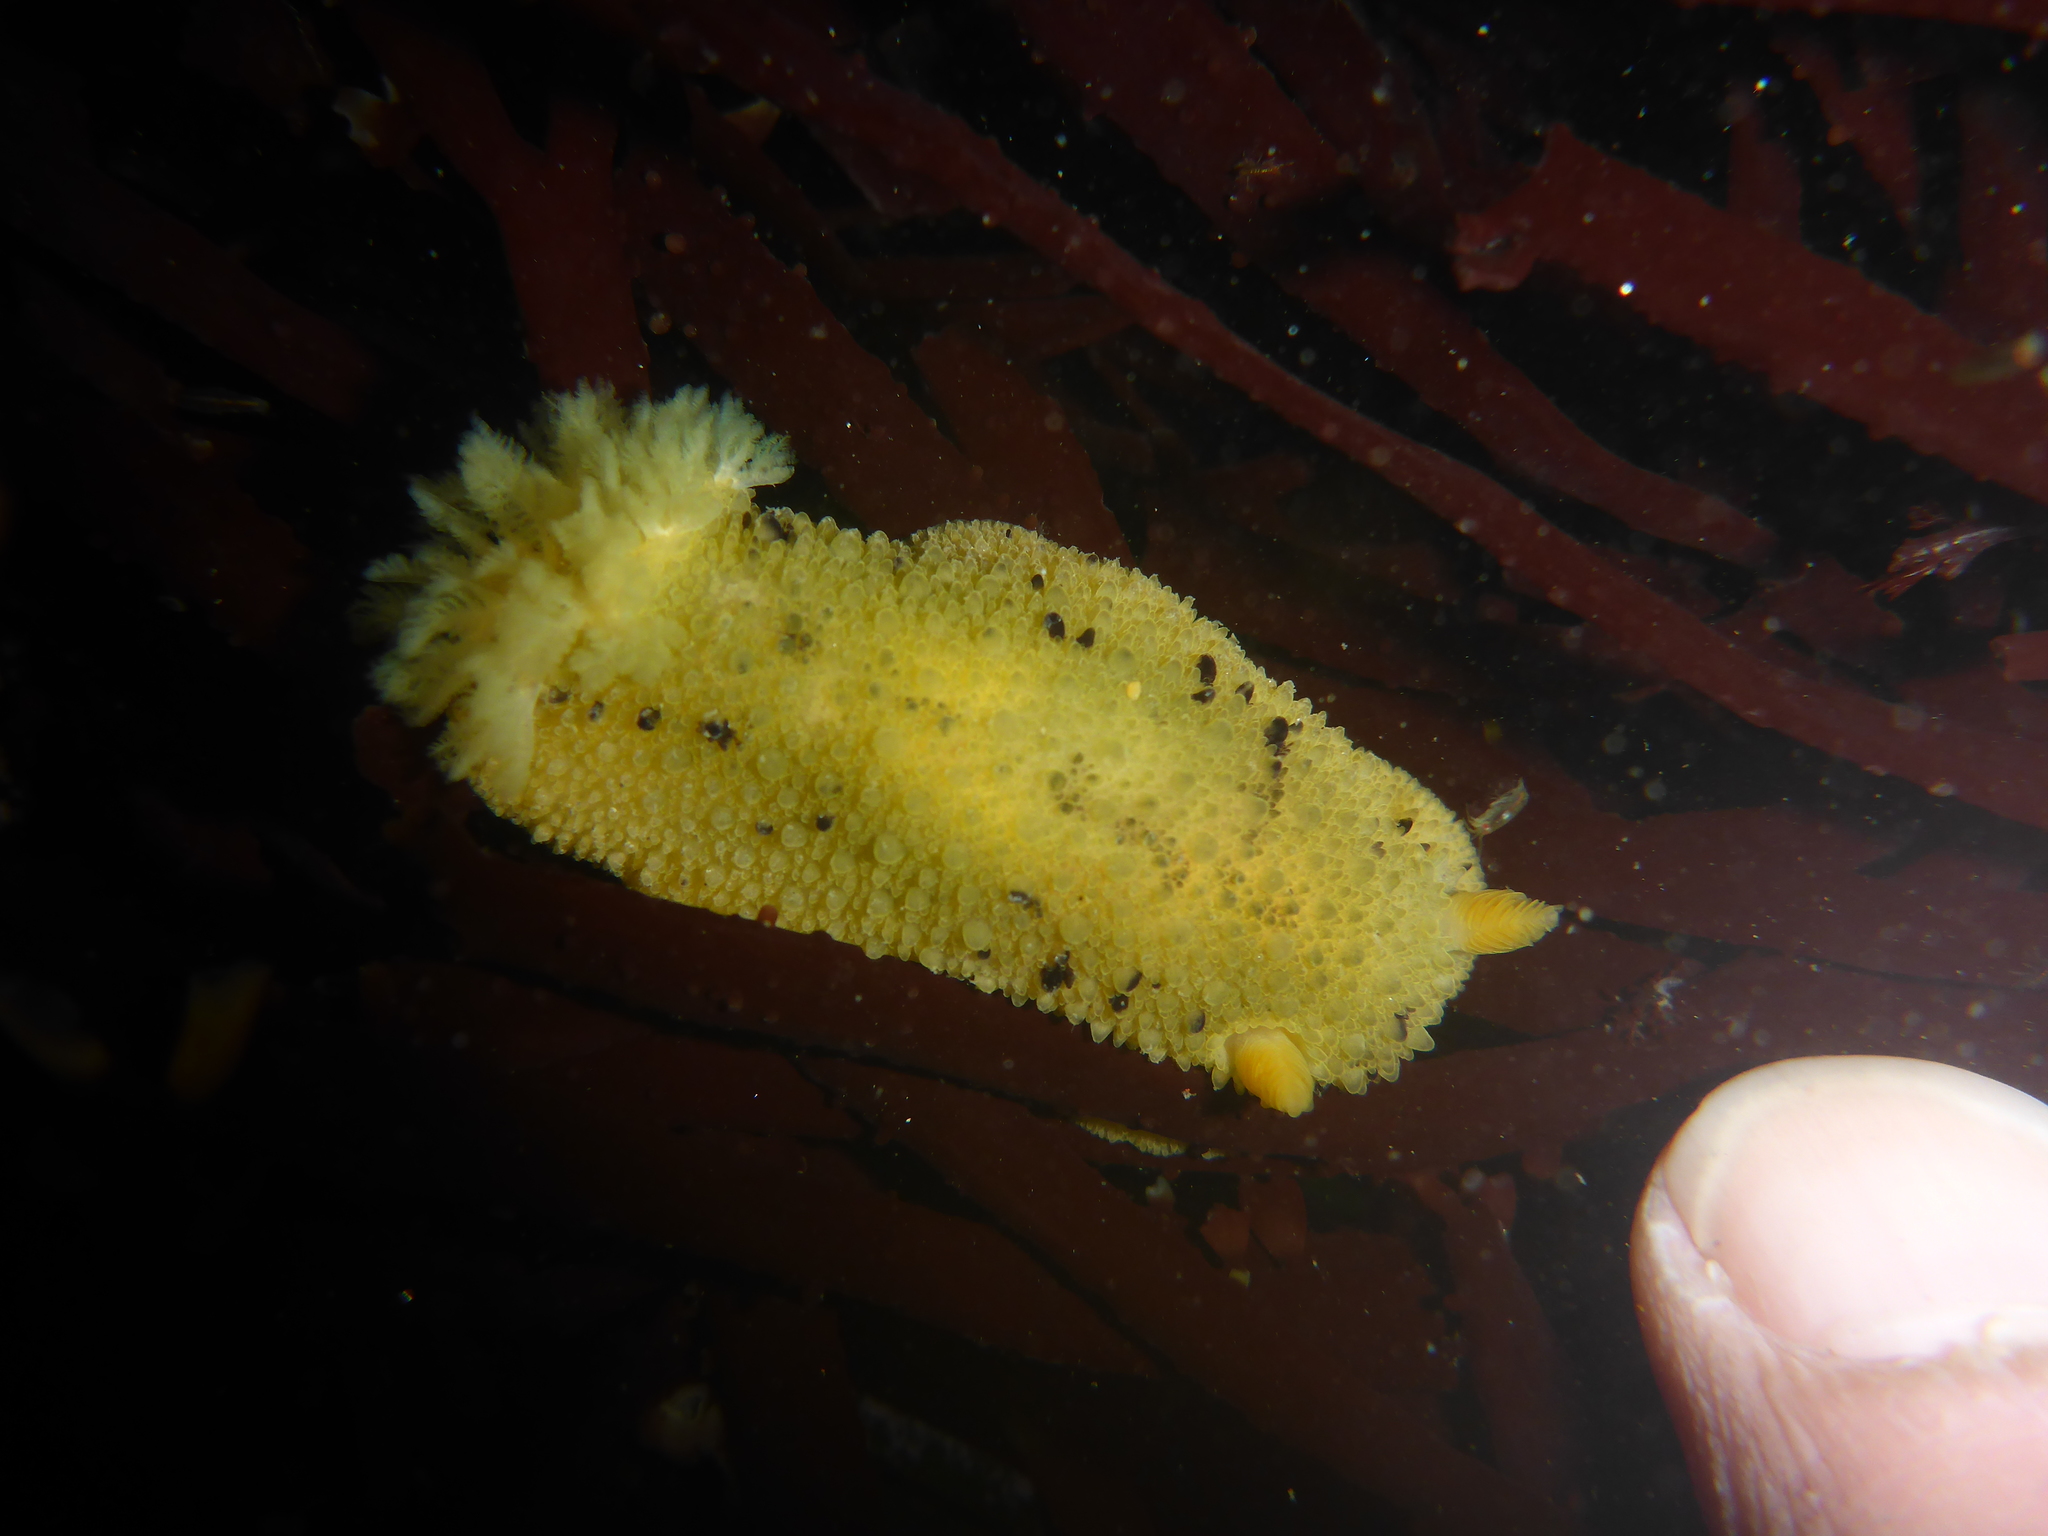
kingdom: Animalia
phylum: Mollusca
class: Gastropoda
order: Nudibranchia
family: Dorididae
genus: Doris
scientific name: Doris montereyensis
